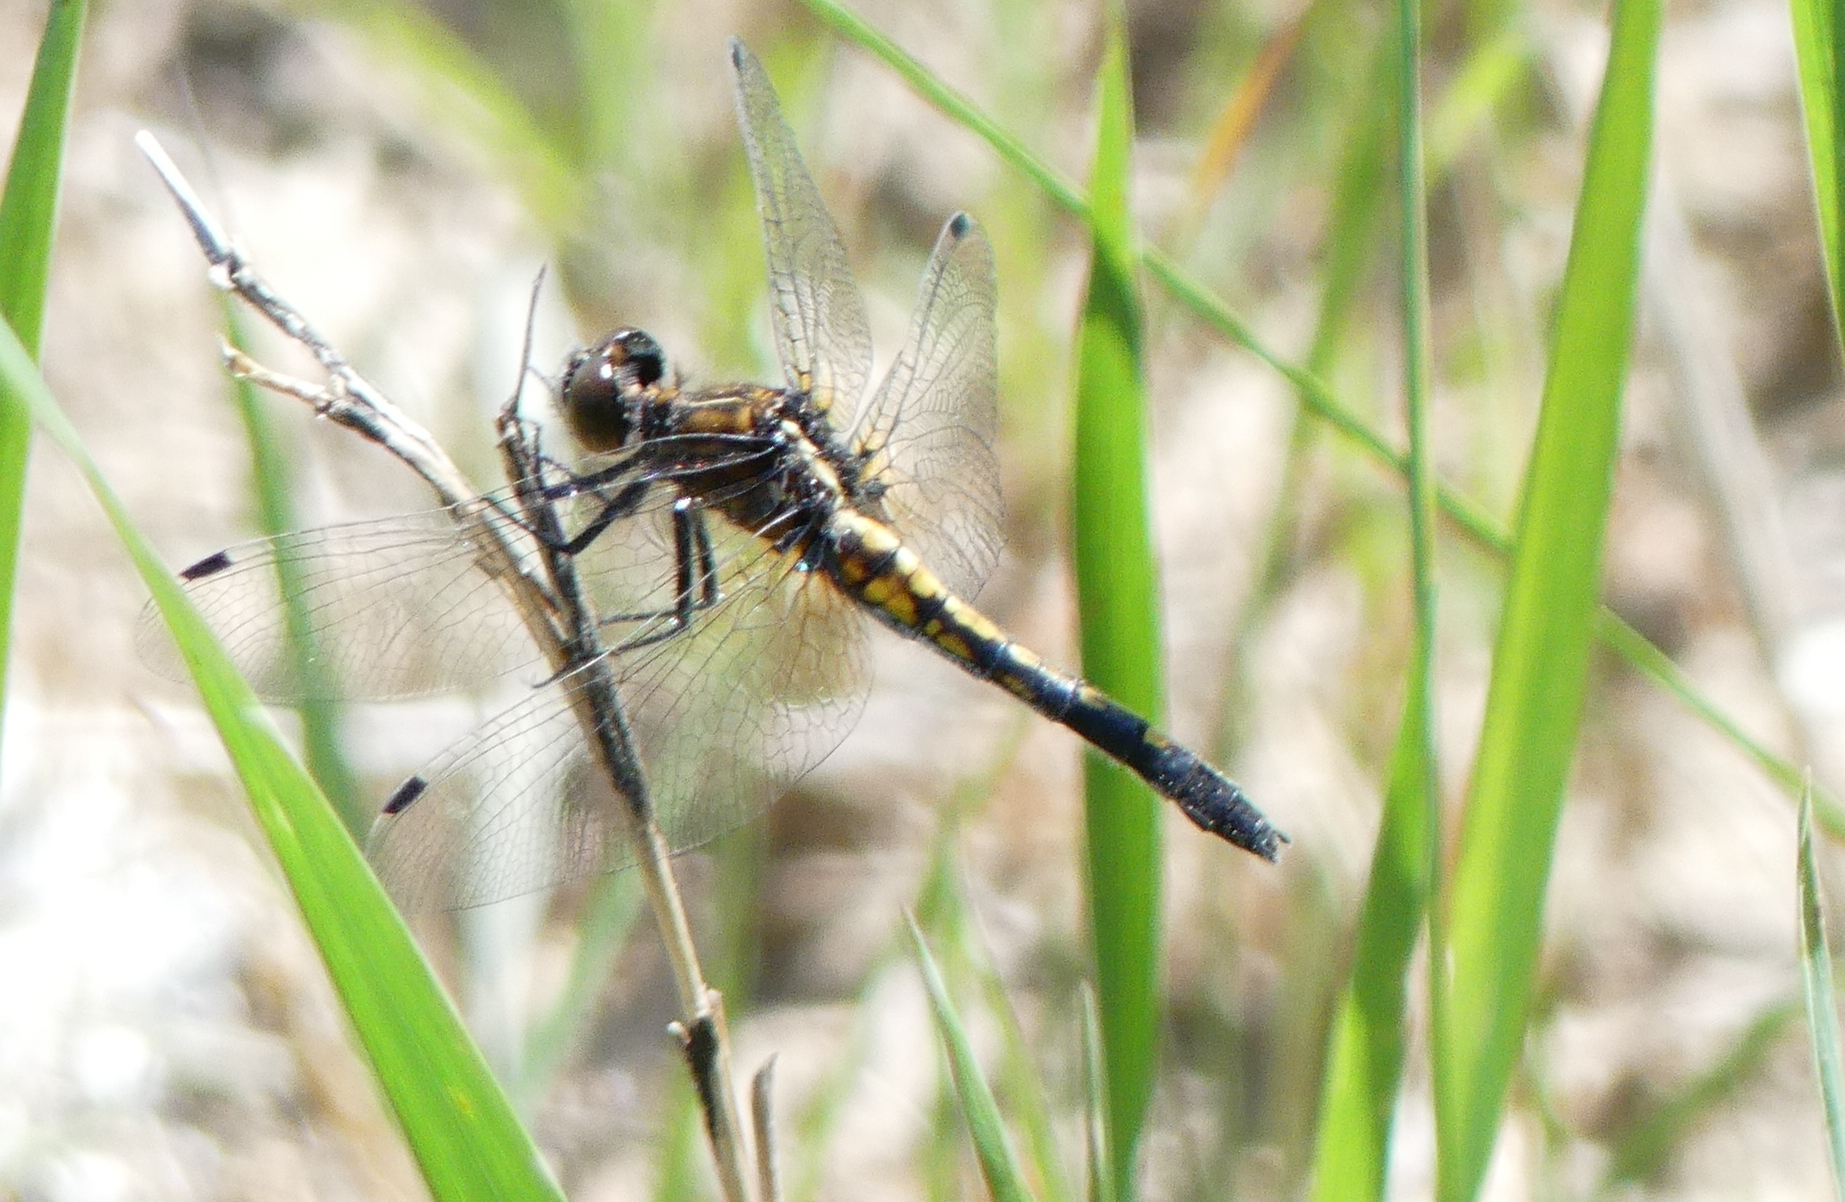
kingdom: Animalia
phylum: Arthropoda
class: Insecta
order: Odonata
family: Libellulidae
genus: Leucorrhinia
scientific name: Leucorrhinia intacta
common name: Dot-tailed whiteface
